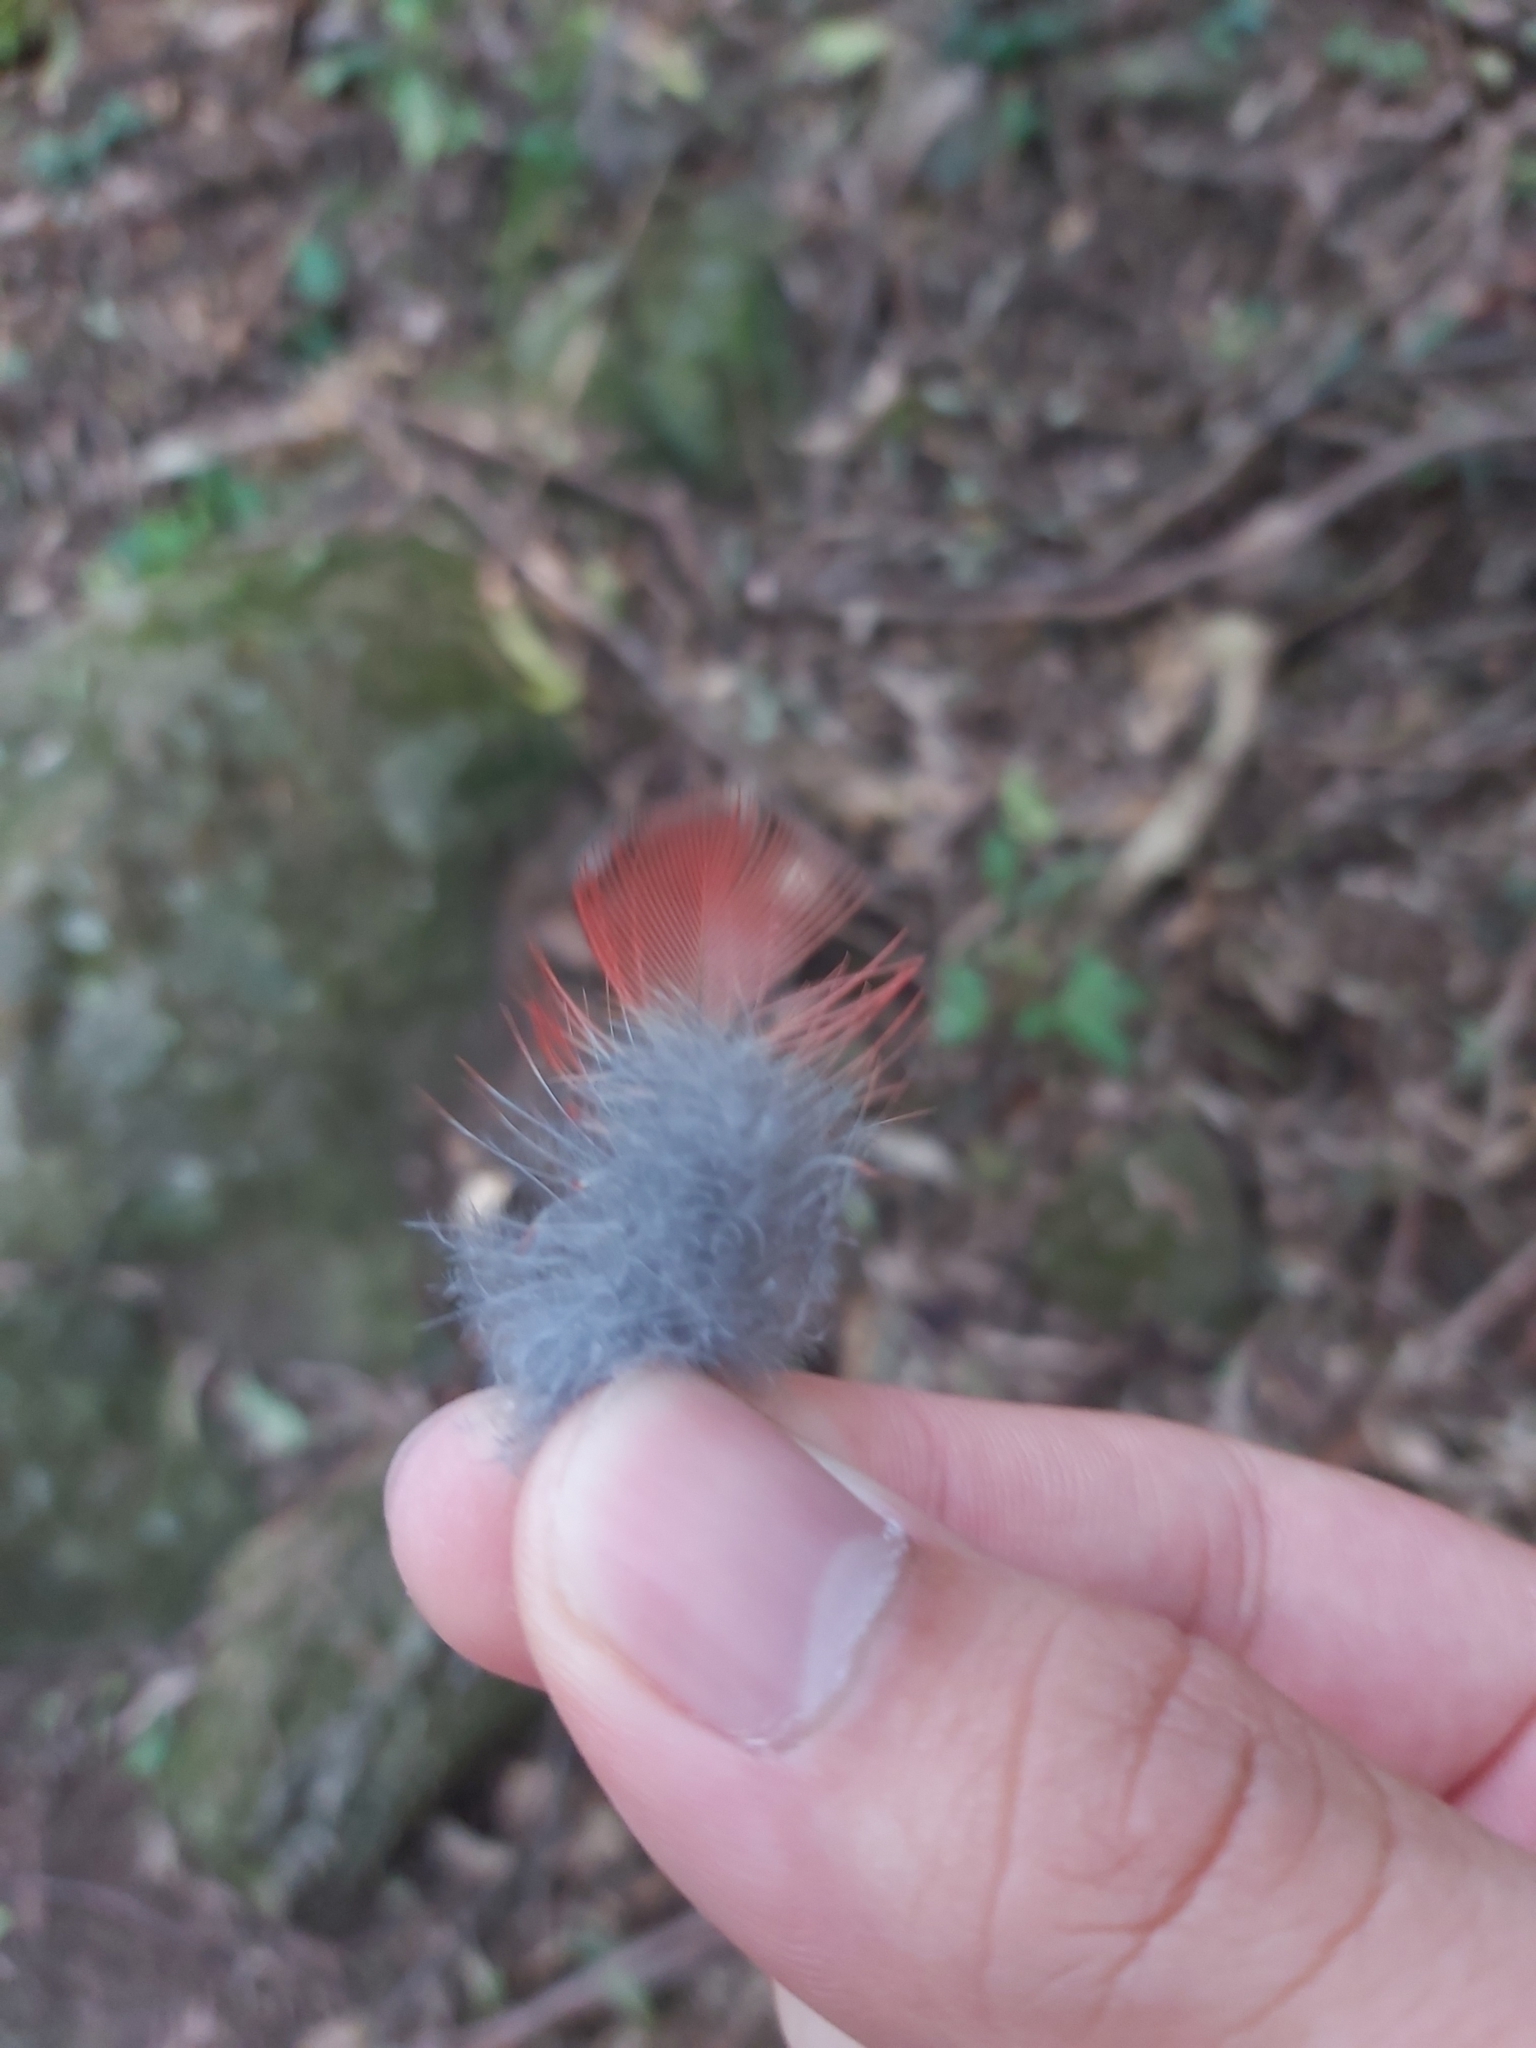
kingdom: Animalia
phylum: Chordata
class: Aves
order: Psittaciformes
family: Psittacidae
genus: Platycercus
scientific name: Platycercus elegans
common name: Crimson rosella
